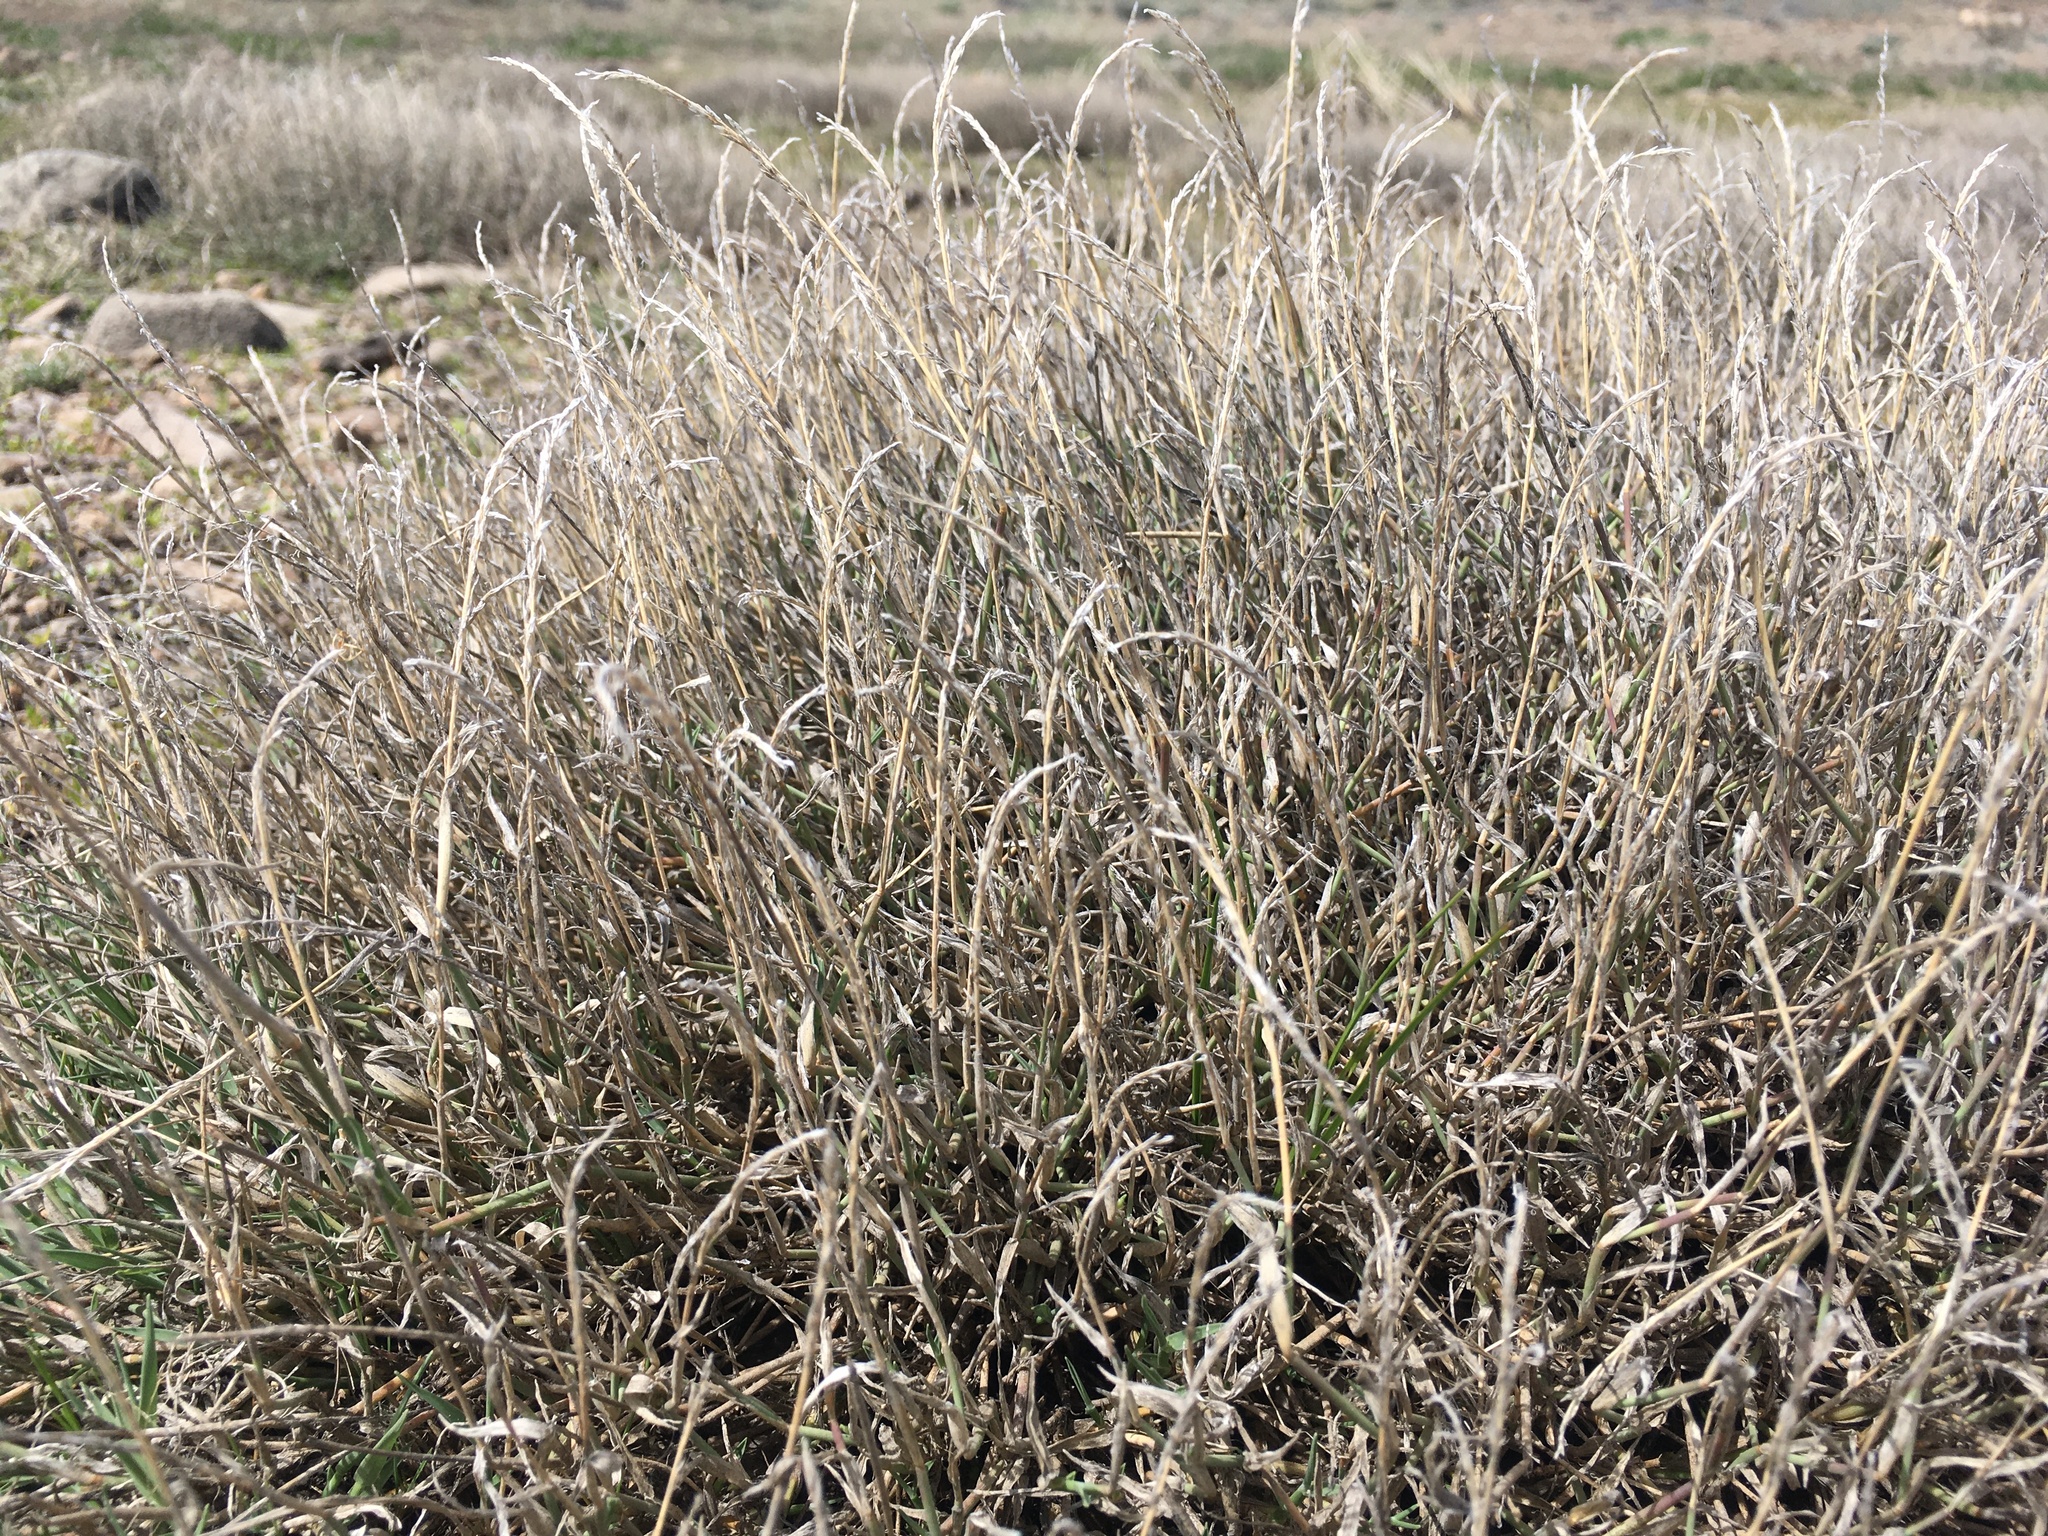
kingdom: Plantae
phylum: Tracheophyta
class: Liliopsida
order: Poales
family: Poaceae
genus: Muhlenbergia
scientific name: Muhlenbergia richardsonis
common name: Mat muhly
